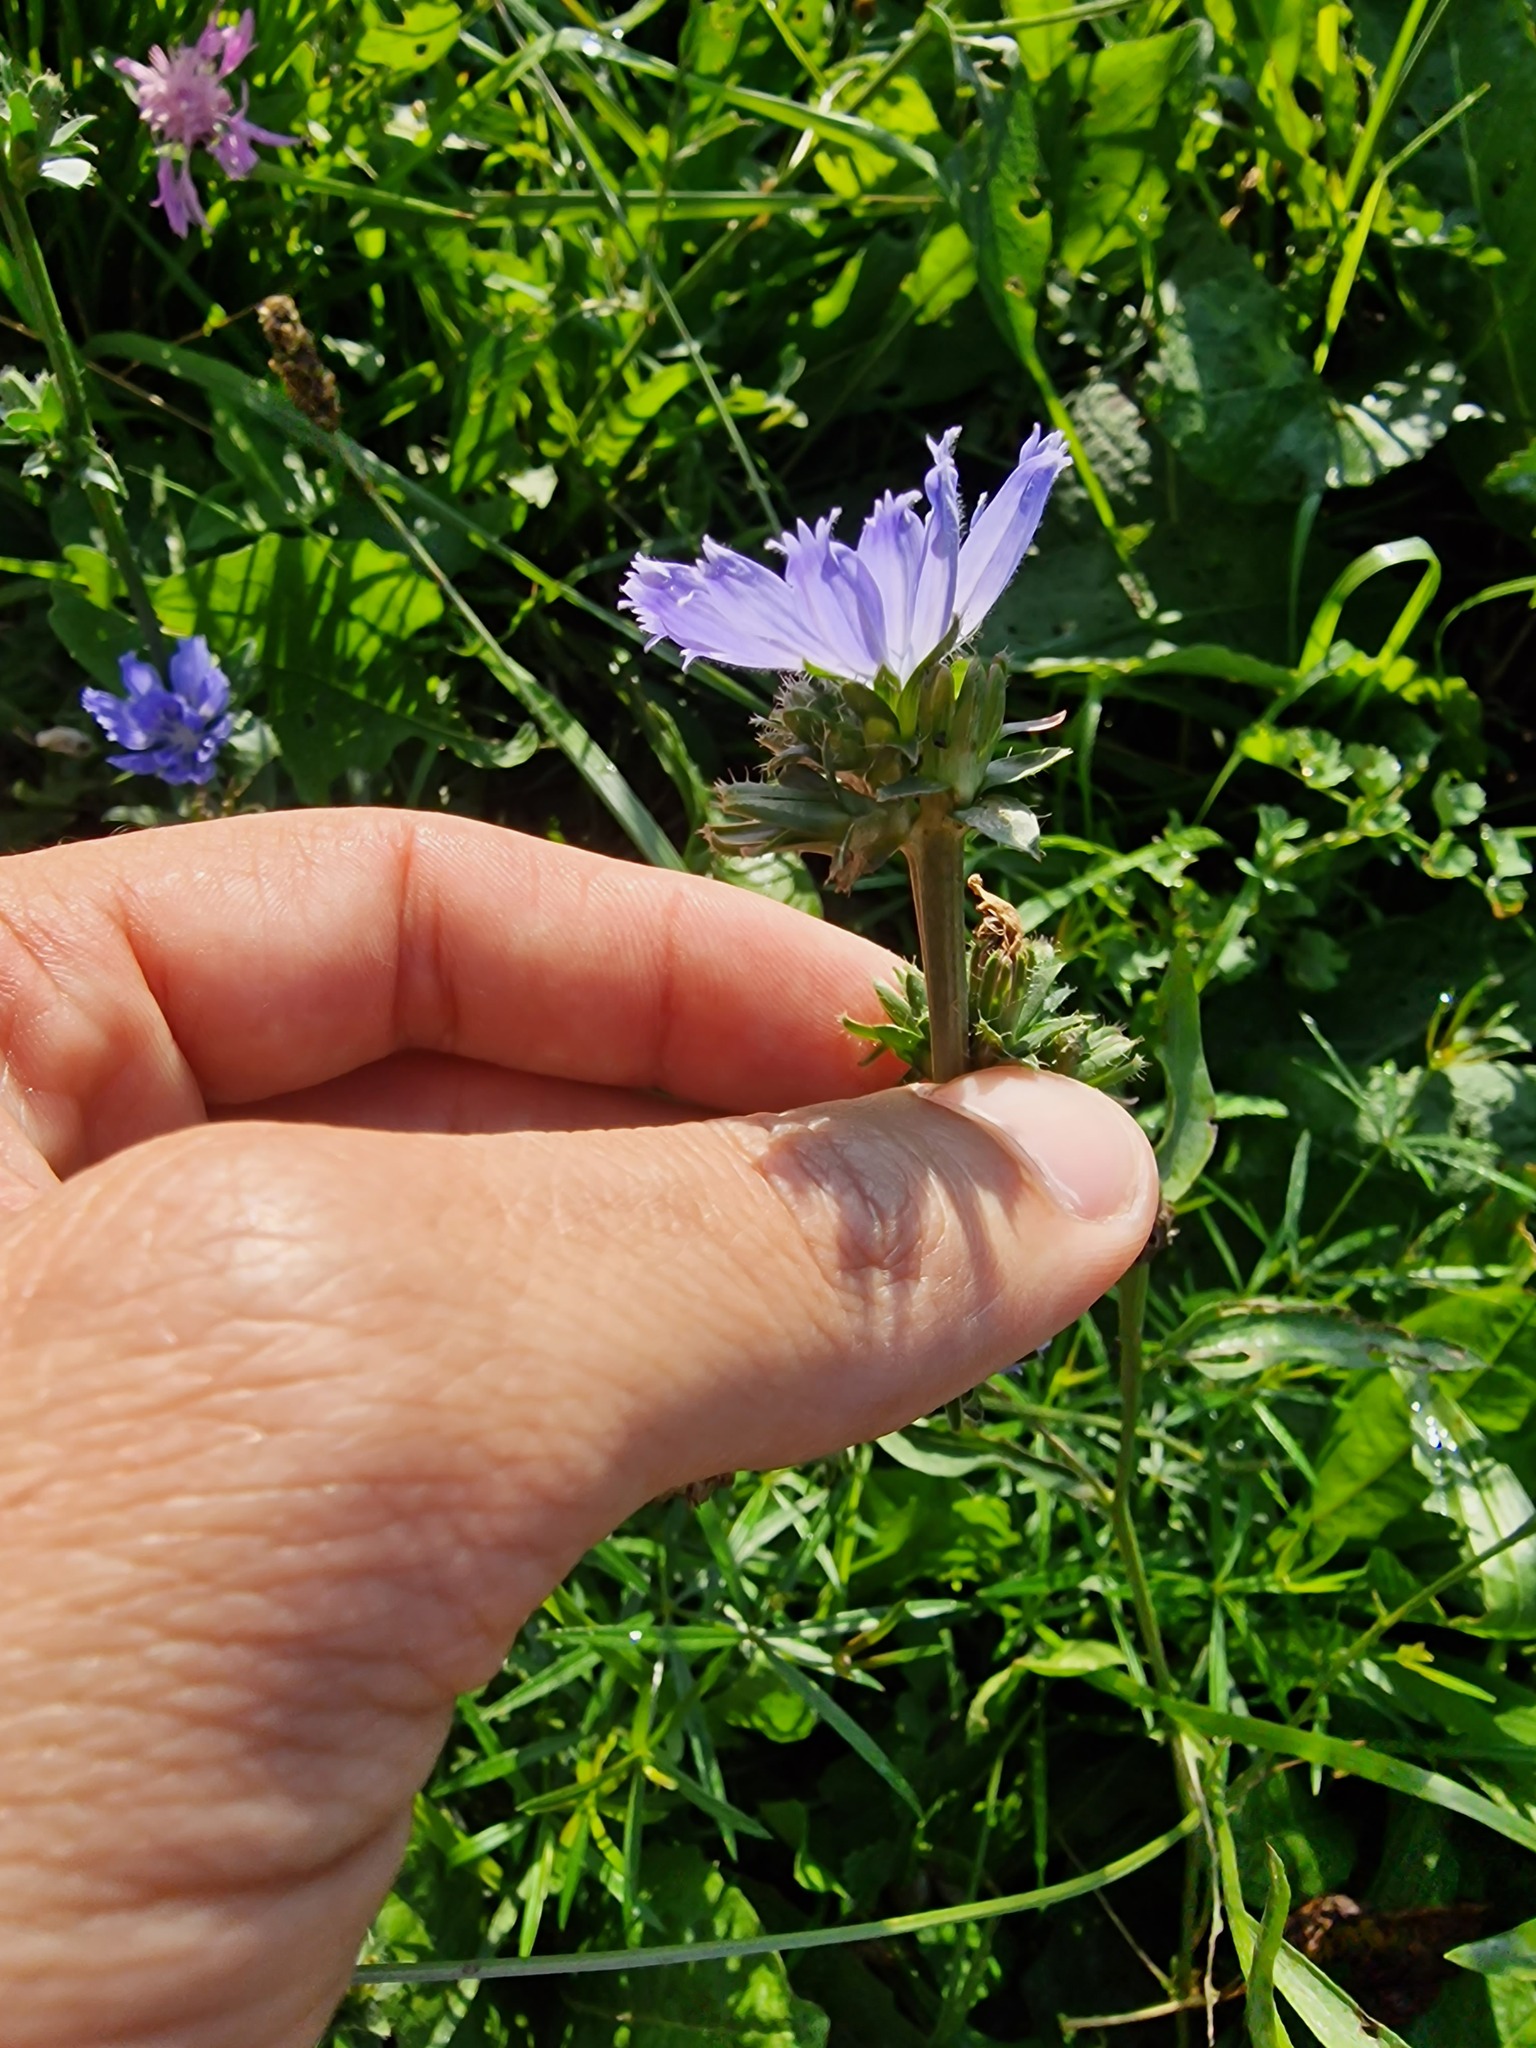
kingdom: Plantae
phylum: Tracheophyta
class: Magnoliopsida
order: Asterales
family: Asteraceae
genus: Cichorium
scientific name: Cichorium intybus
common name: Chicory
